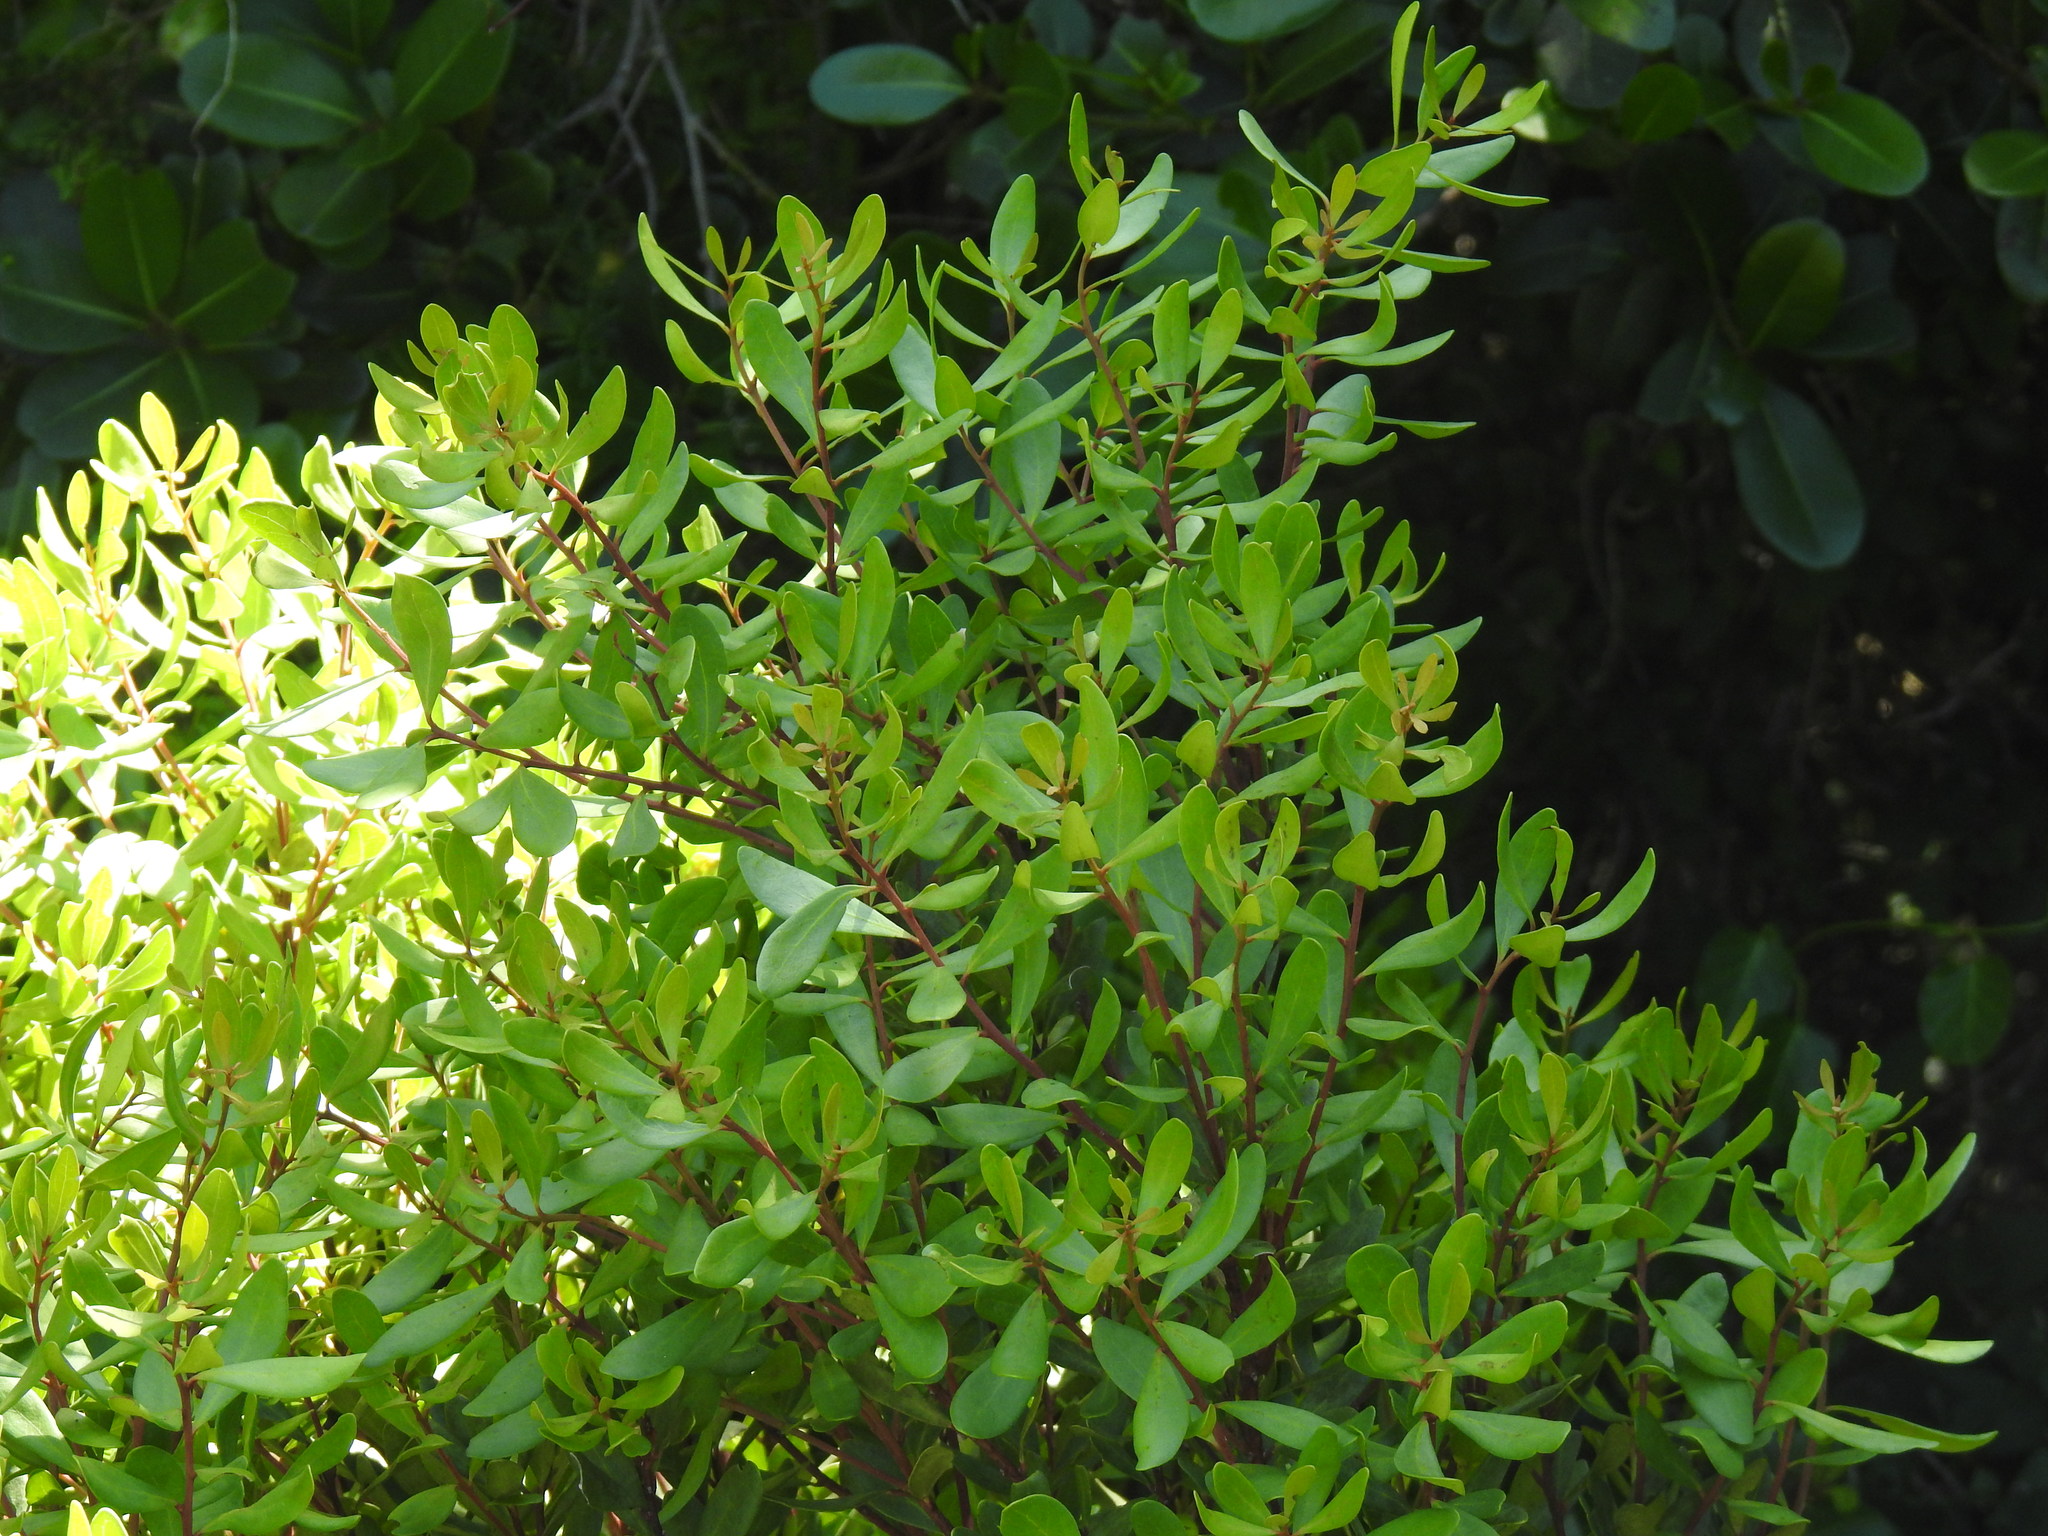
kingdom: Plantae
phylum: Tracheophyta
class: Magnoliopsida
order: Ericales
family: Ebenaceae
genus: Euclea
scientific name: Euclea racemosa
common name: Dune guarri
